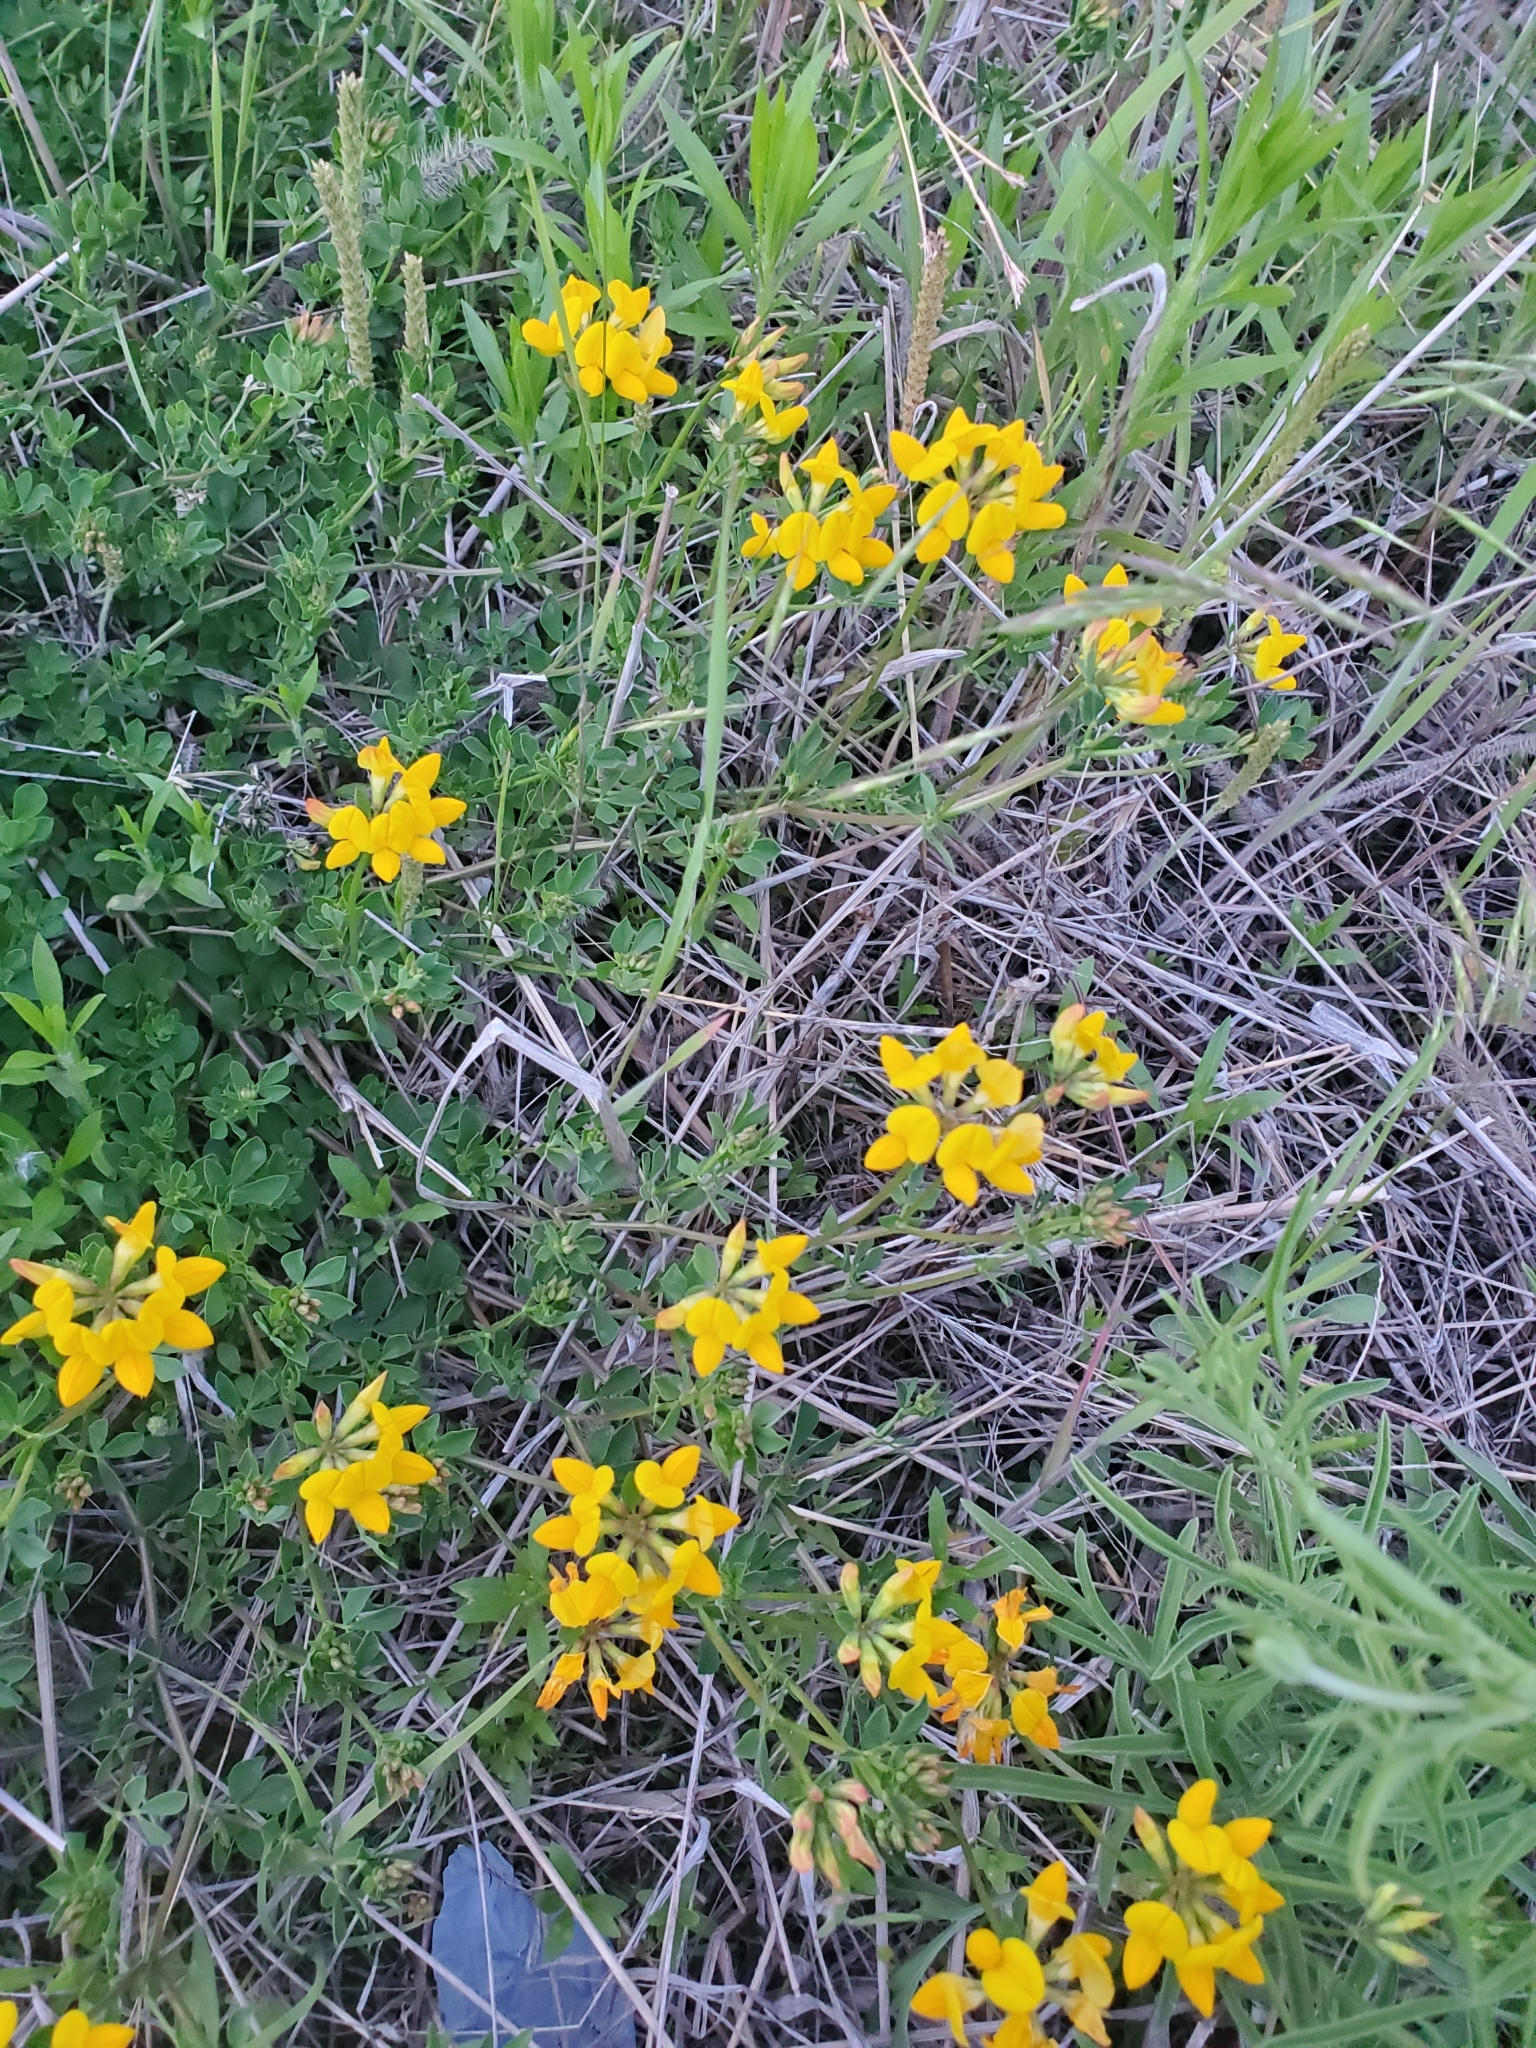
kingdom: Plantae
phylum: Tracheophyta
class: Magnoliopsida
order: Fabales
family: Fabaceae
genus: Lotus
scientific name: Lotus corniculatus
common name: Common bird's-foot-trefoil
